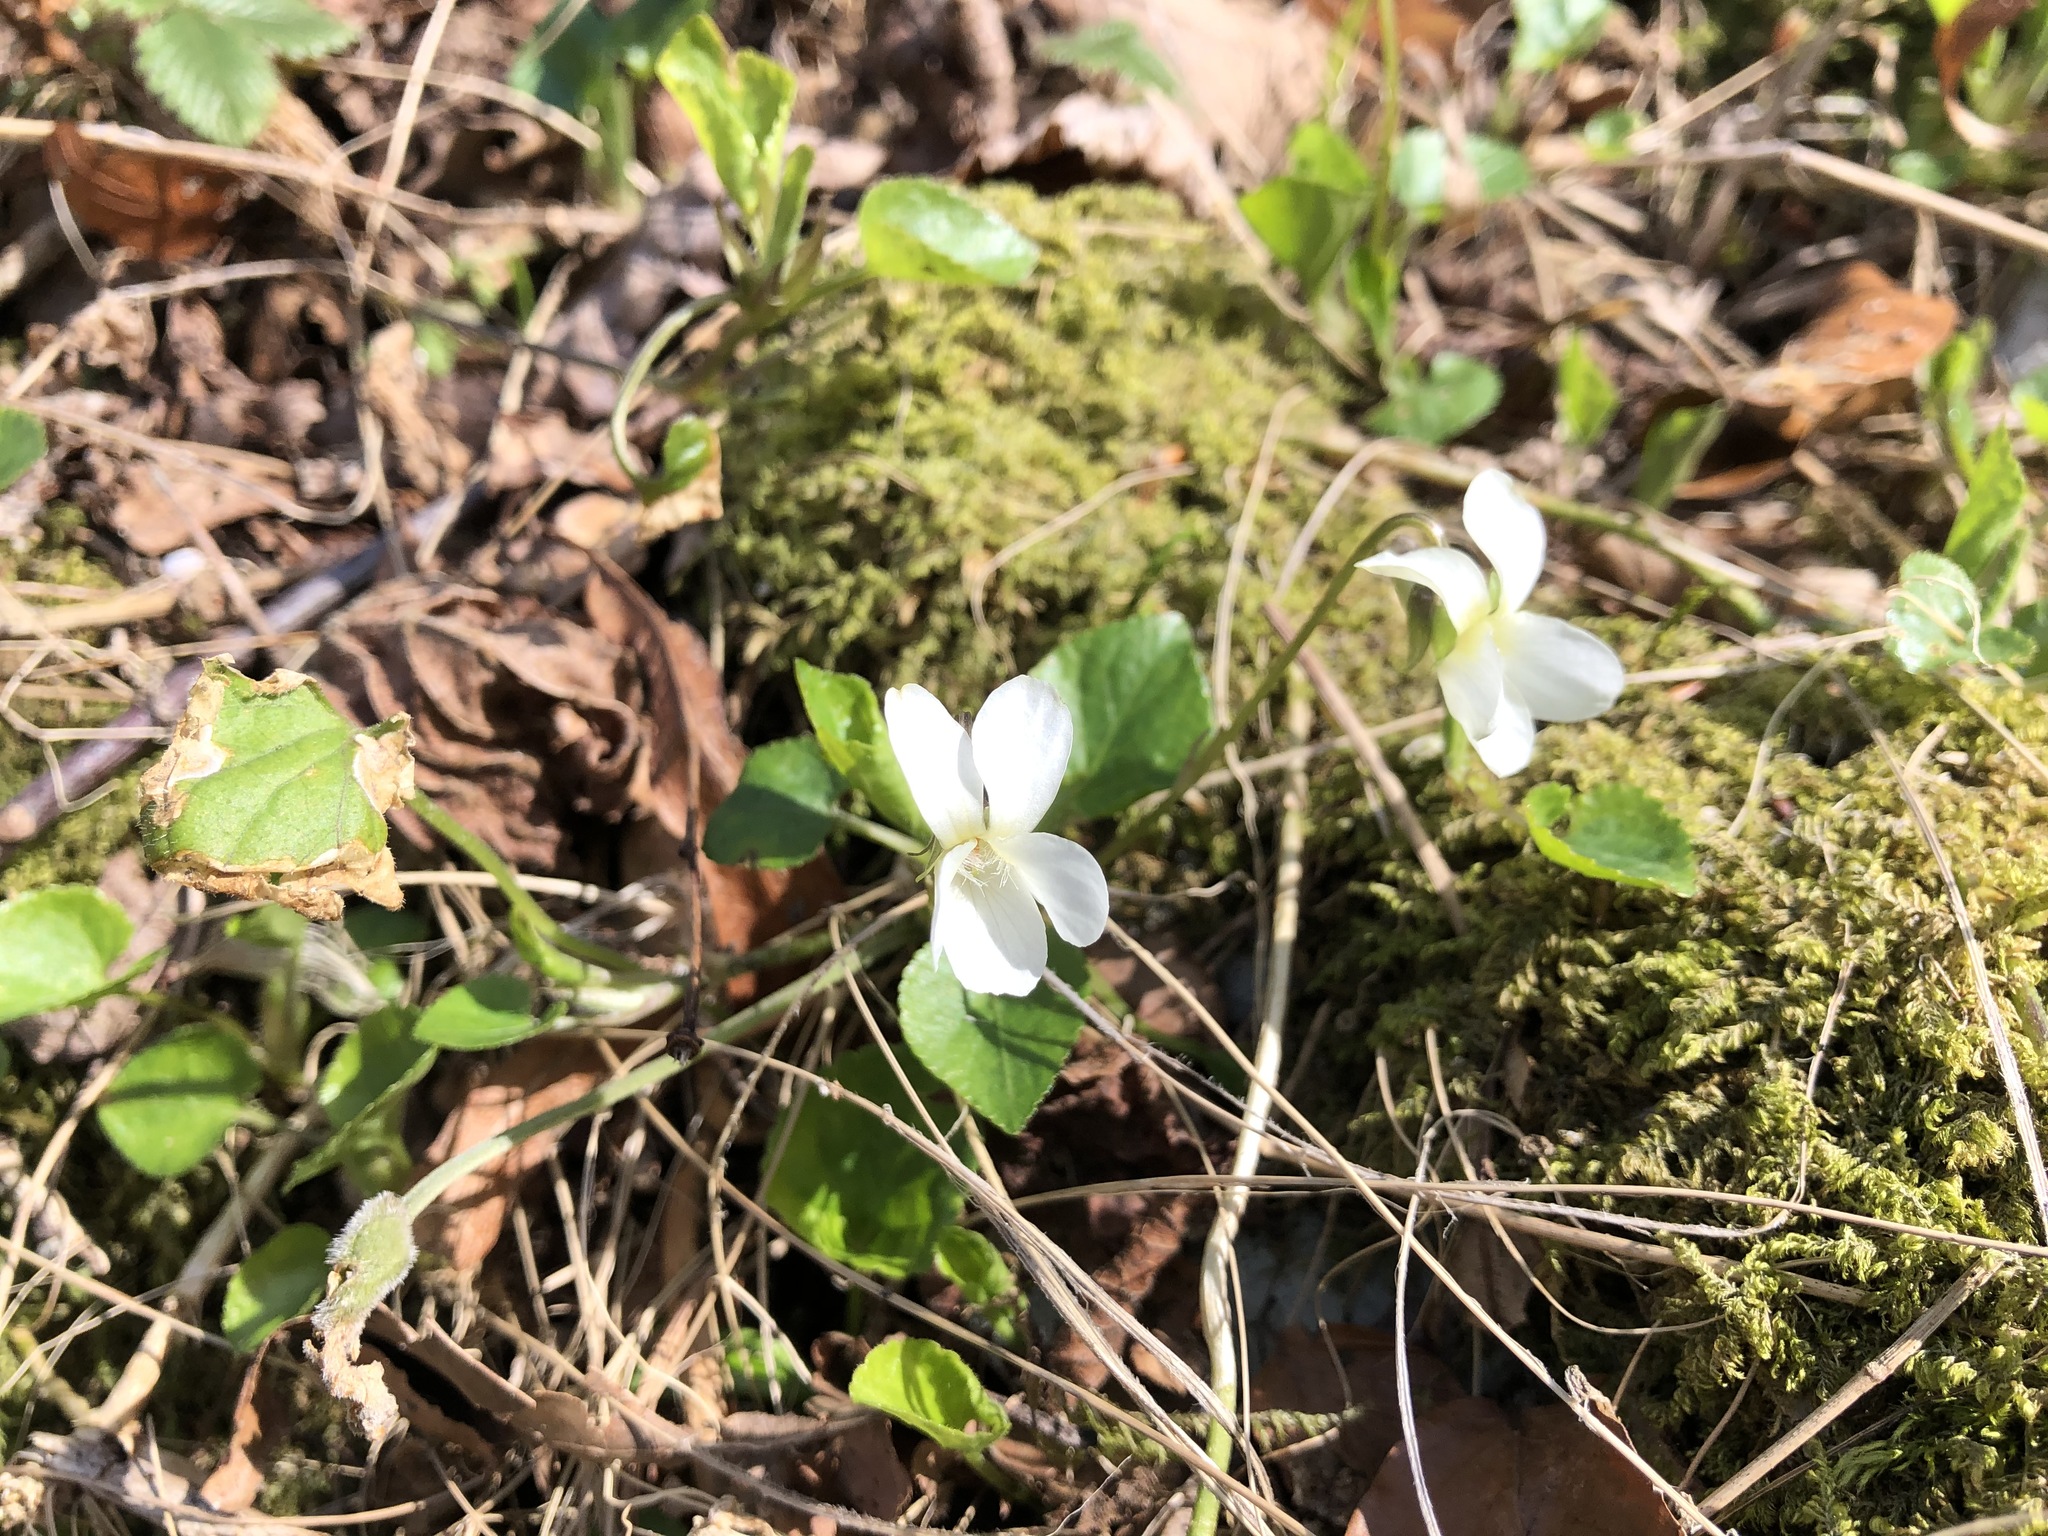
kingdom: Plantae
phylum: Tracheophyta
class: Magnoliopsida
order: Malpighiales
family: Violaceae
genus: Viola
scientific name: Viola alba
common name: White violet
